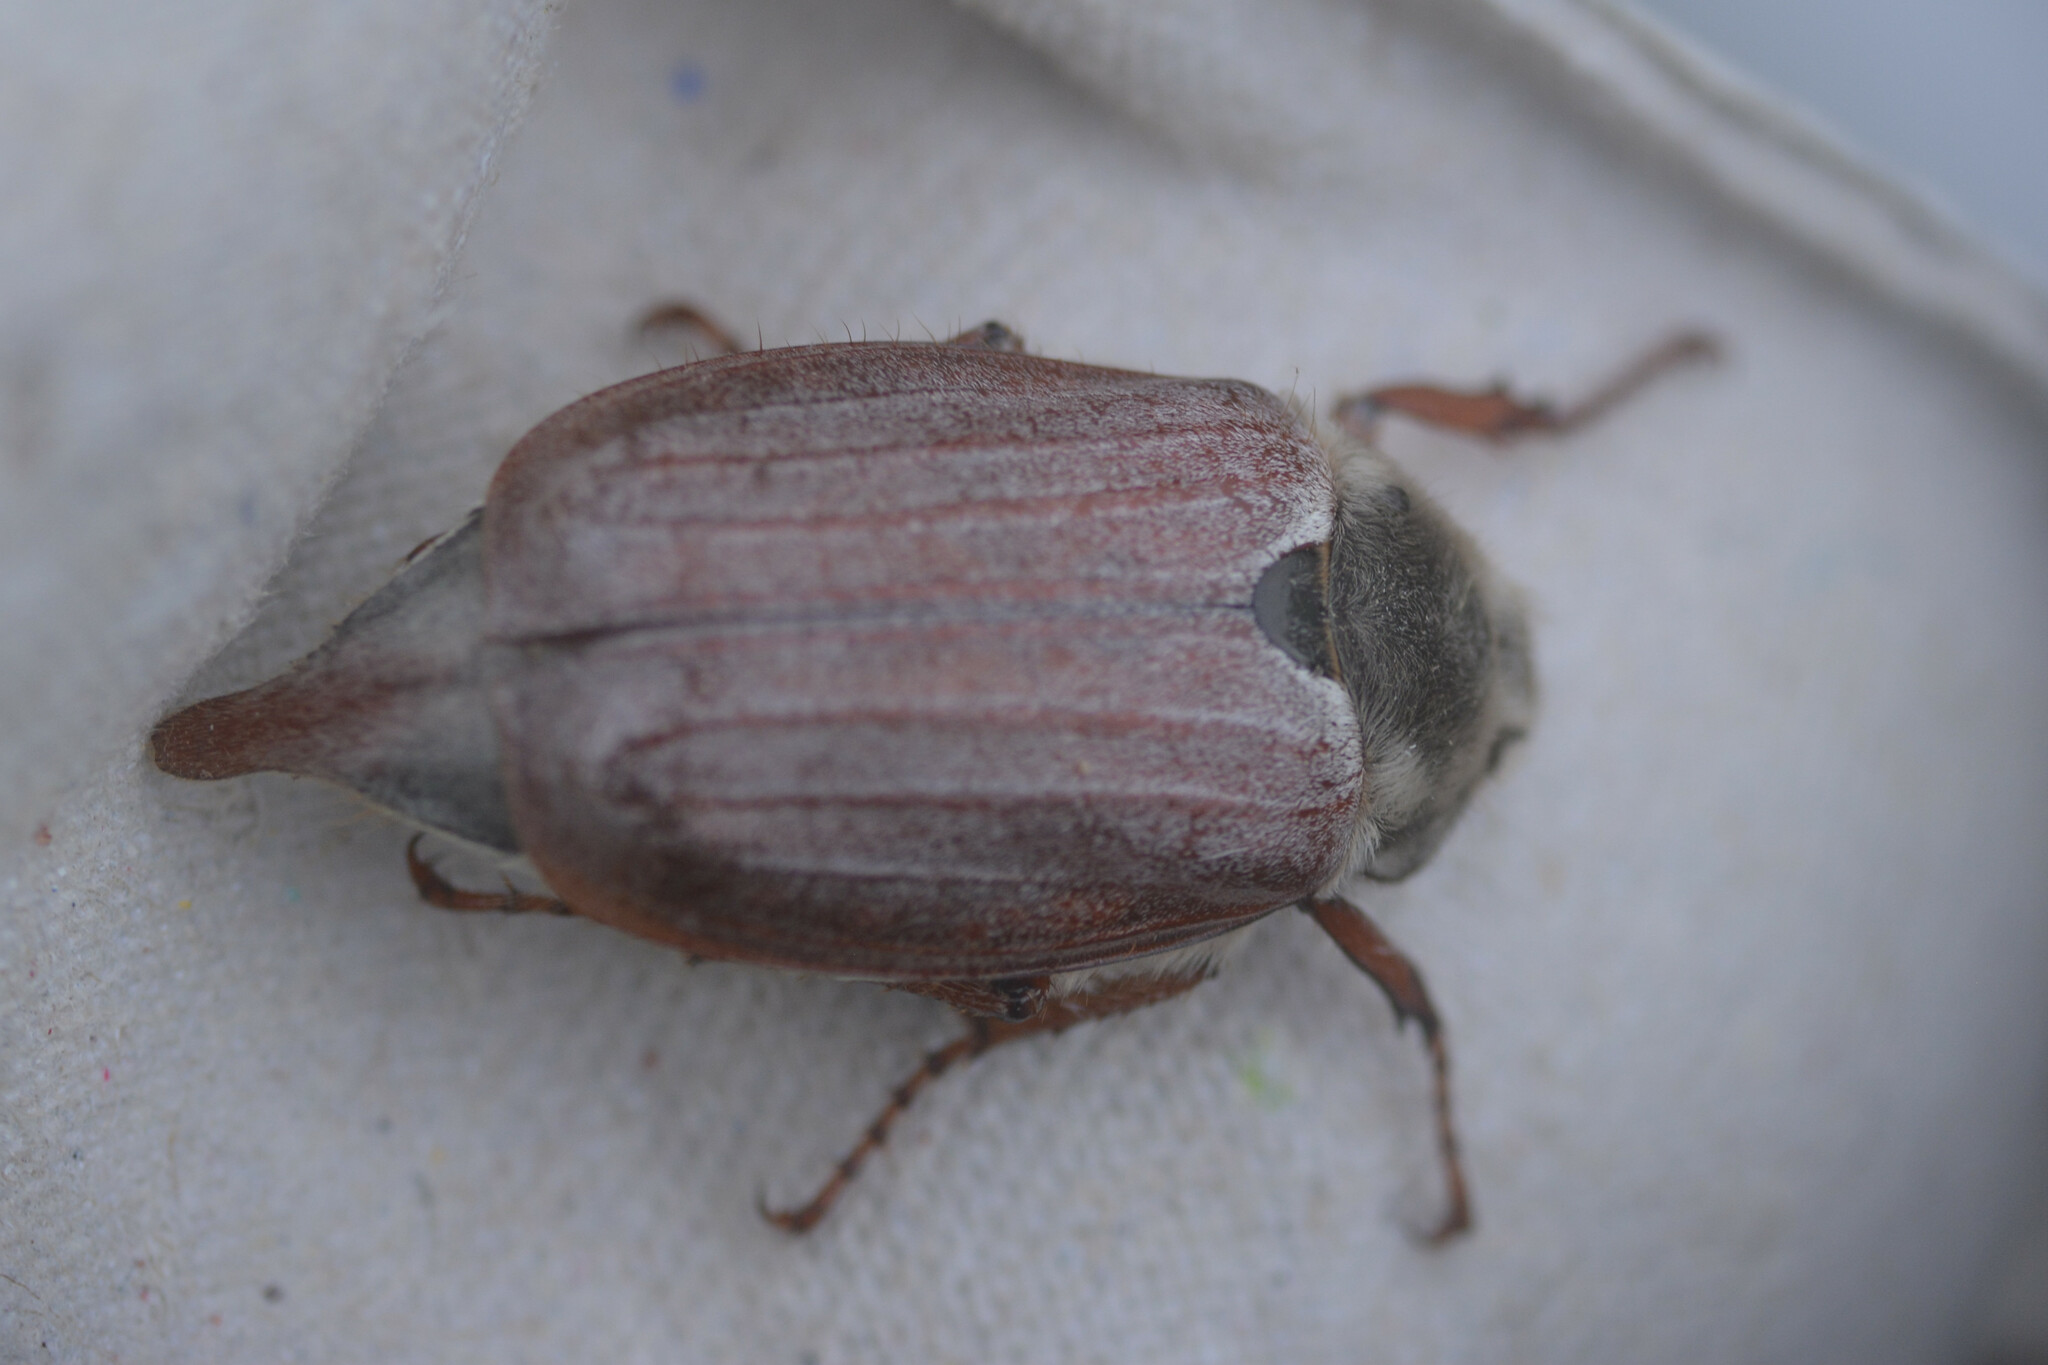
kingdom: Animalia
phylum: Arthropoda
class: Insecta
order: Coleoptera
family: Scarabaeidae
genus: Melolontha
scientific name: Melolontha melolontha
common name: Cockchafer maybeetle
